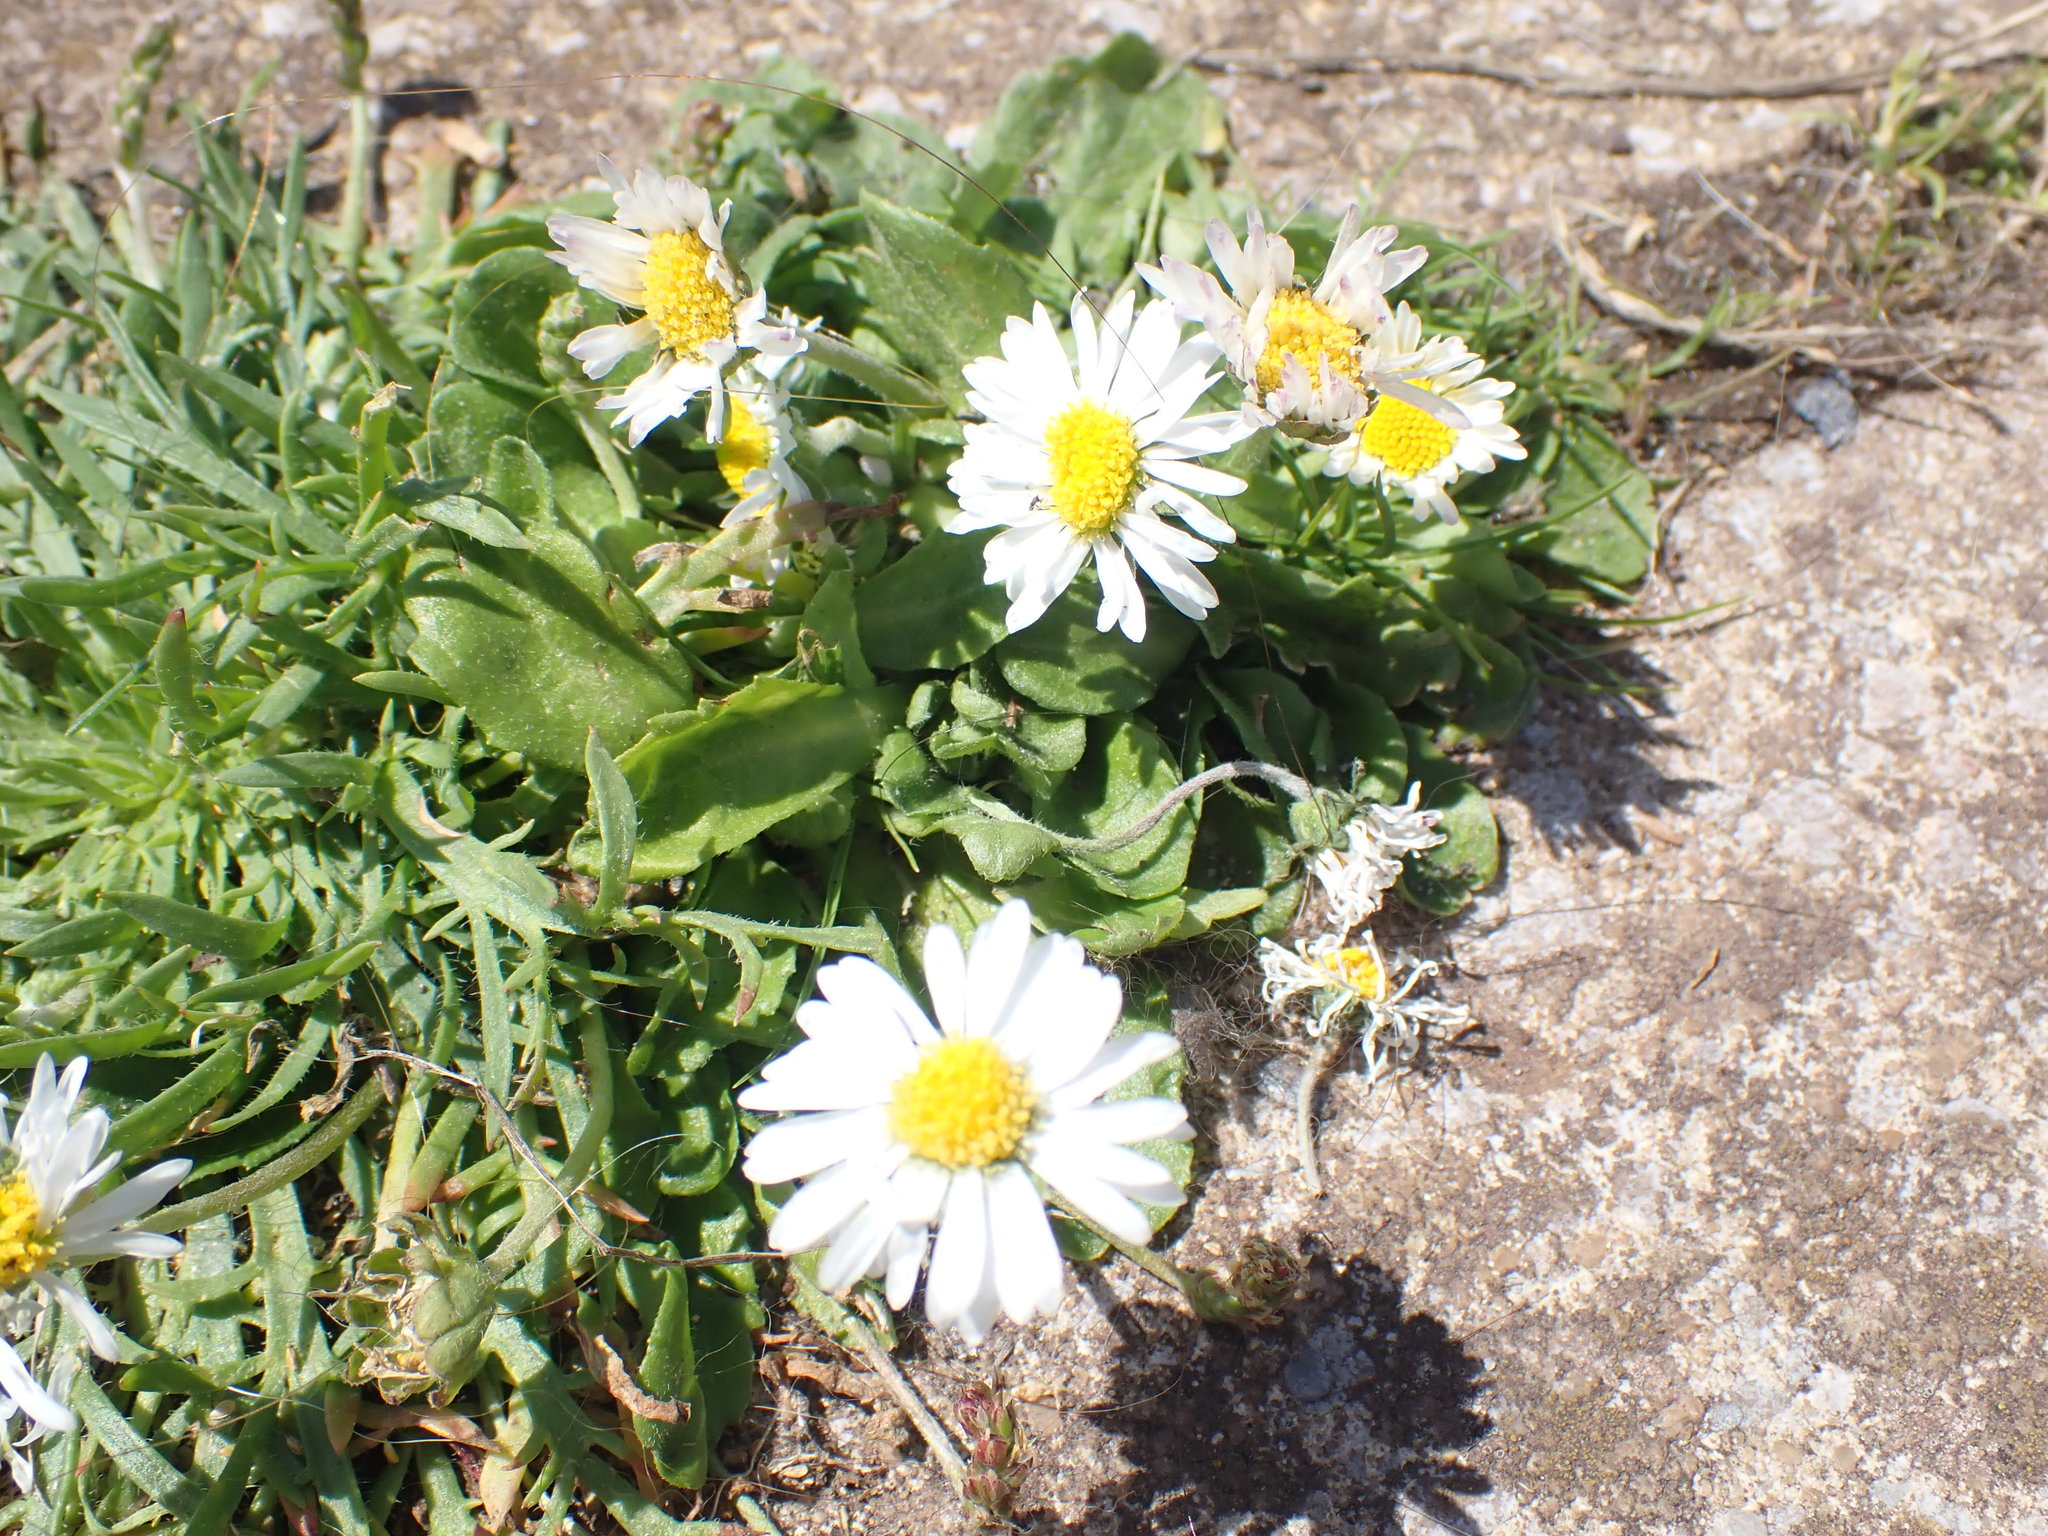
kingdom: Plantae
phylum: Tracheophyta
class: Magnoliopsida
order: Asterales
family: Asteraceae
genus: Bellis
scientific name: Bellis perennis
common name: Lawndaisy
